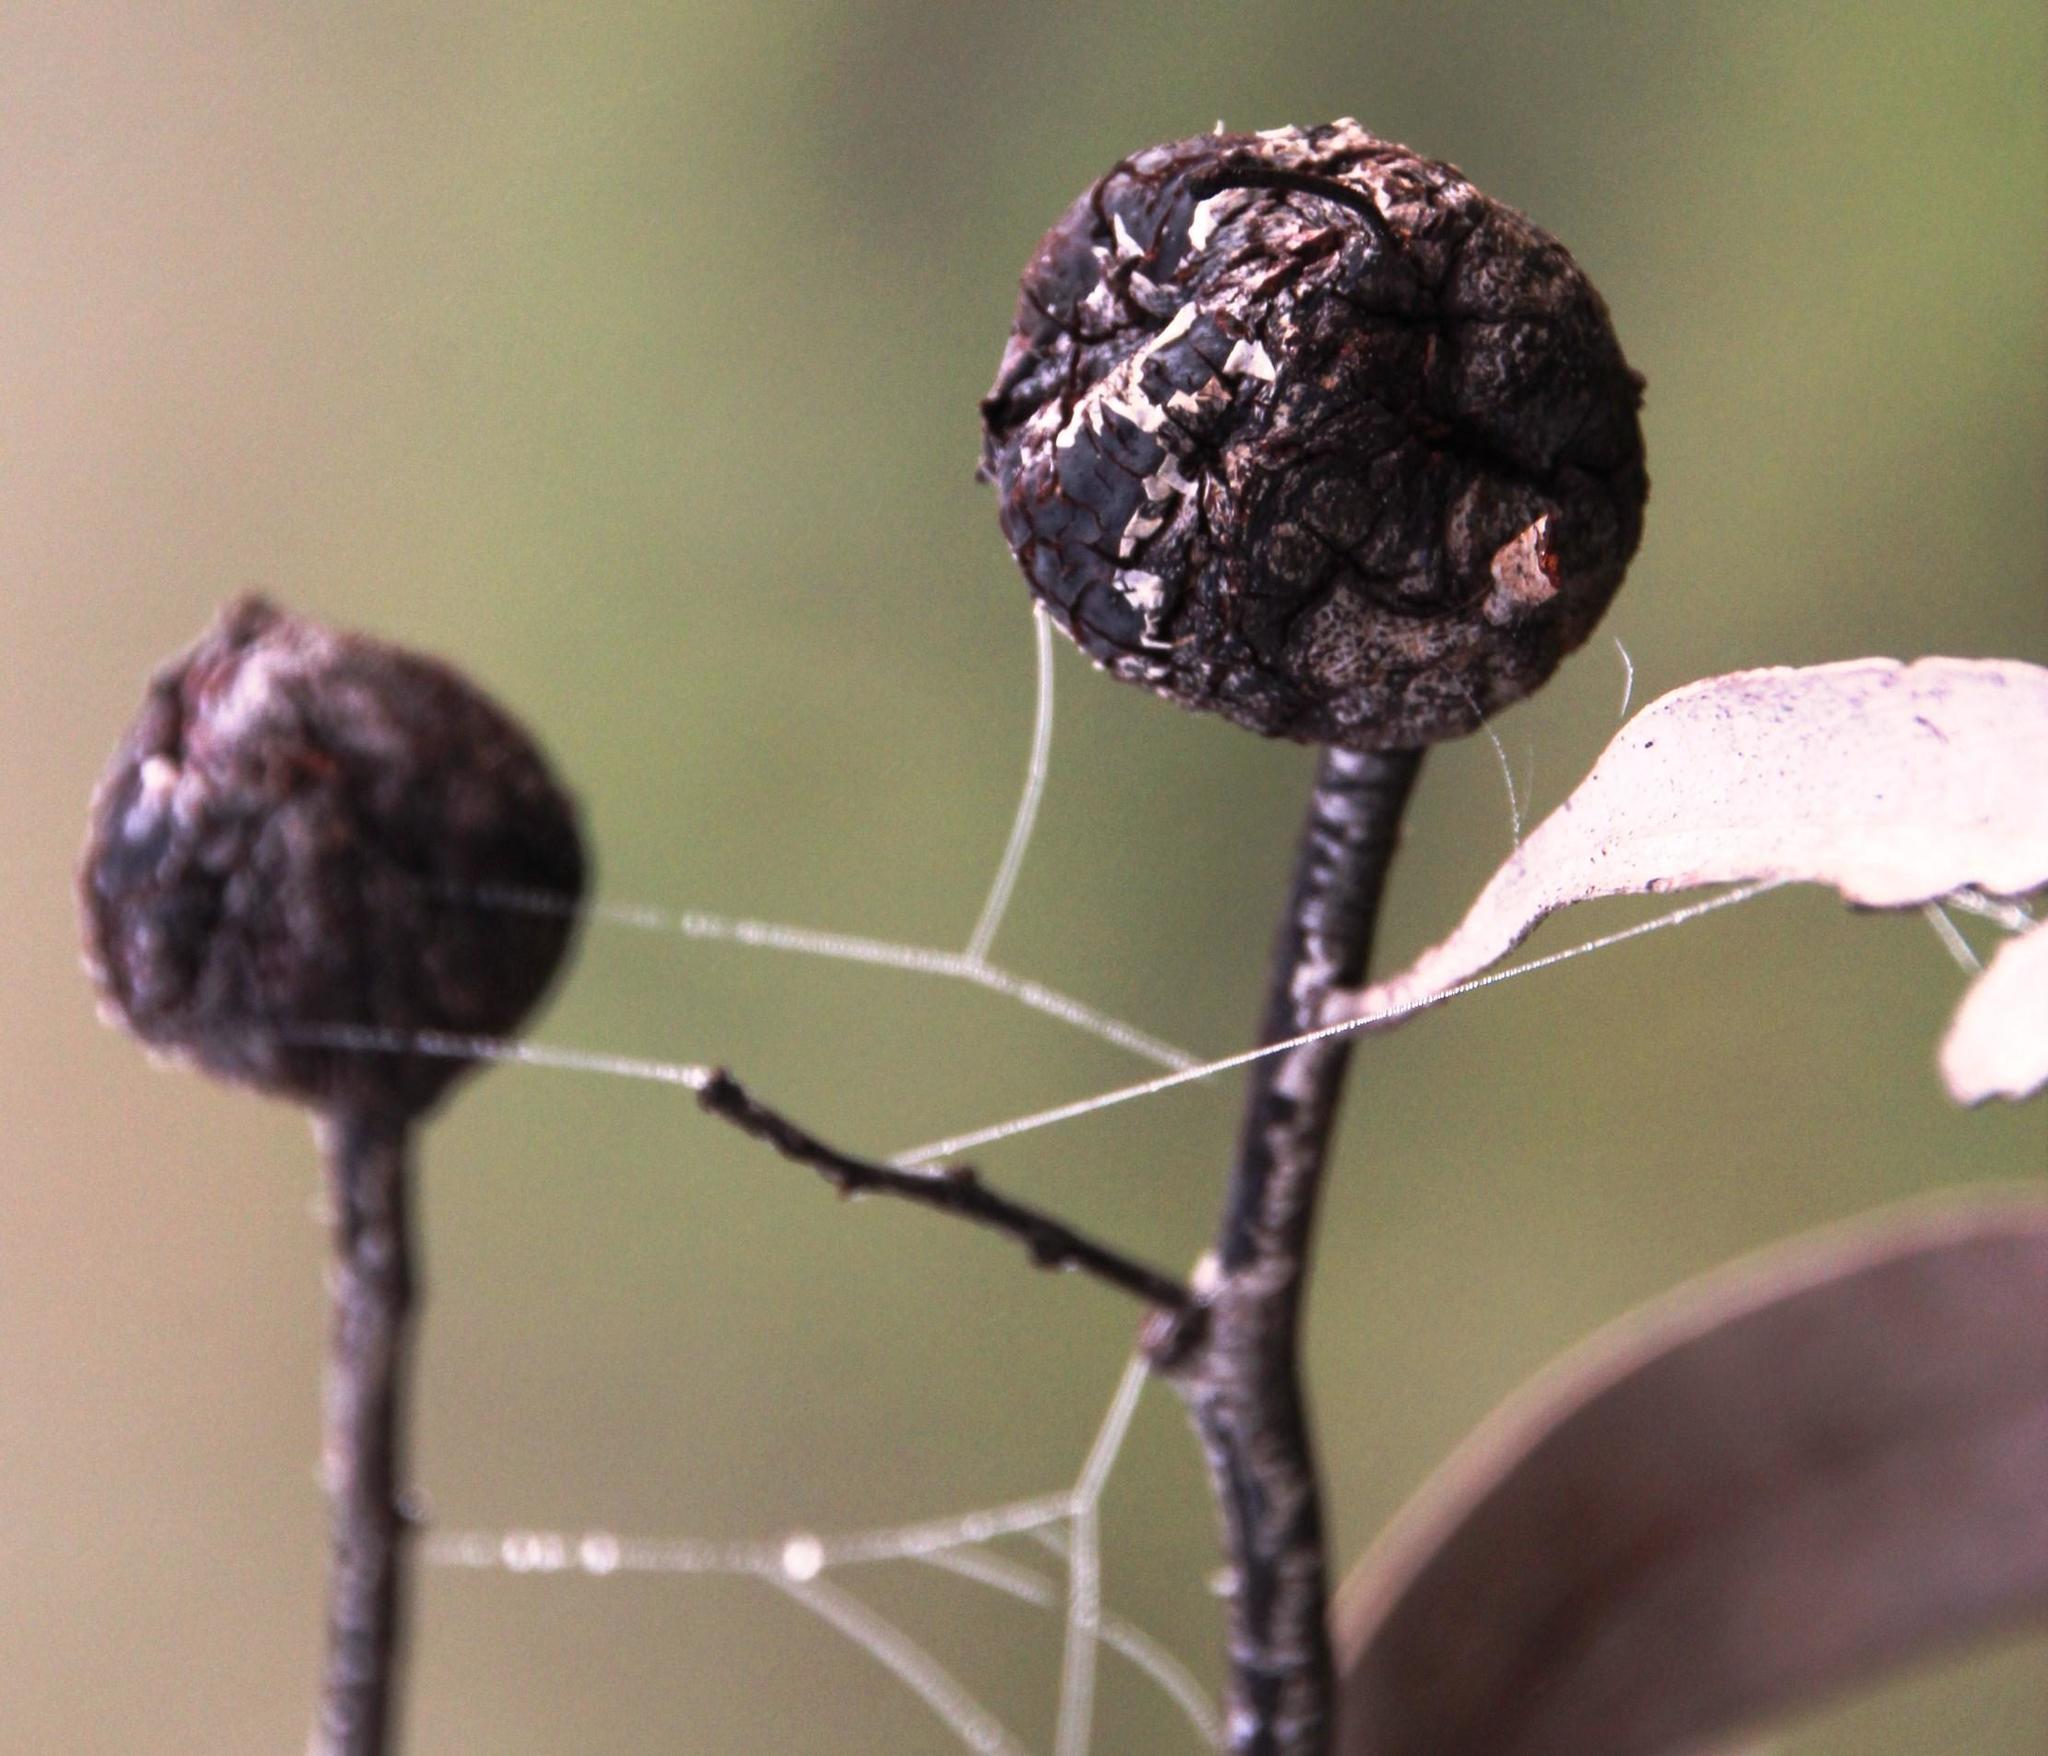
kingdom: Plantae
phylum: Tracheophyta
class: Magnoliopsida
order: Fabales
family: Fabaceae
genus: Acacia
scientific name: Acacia pycnantha
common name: Golden wattle
